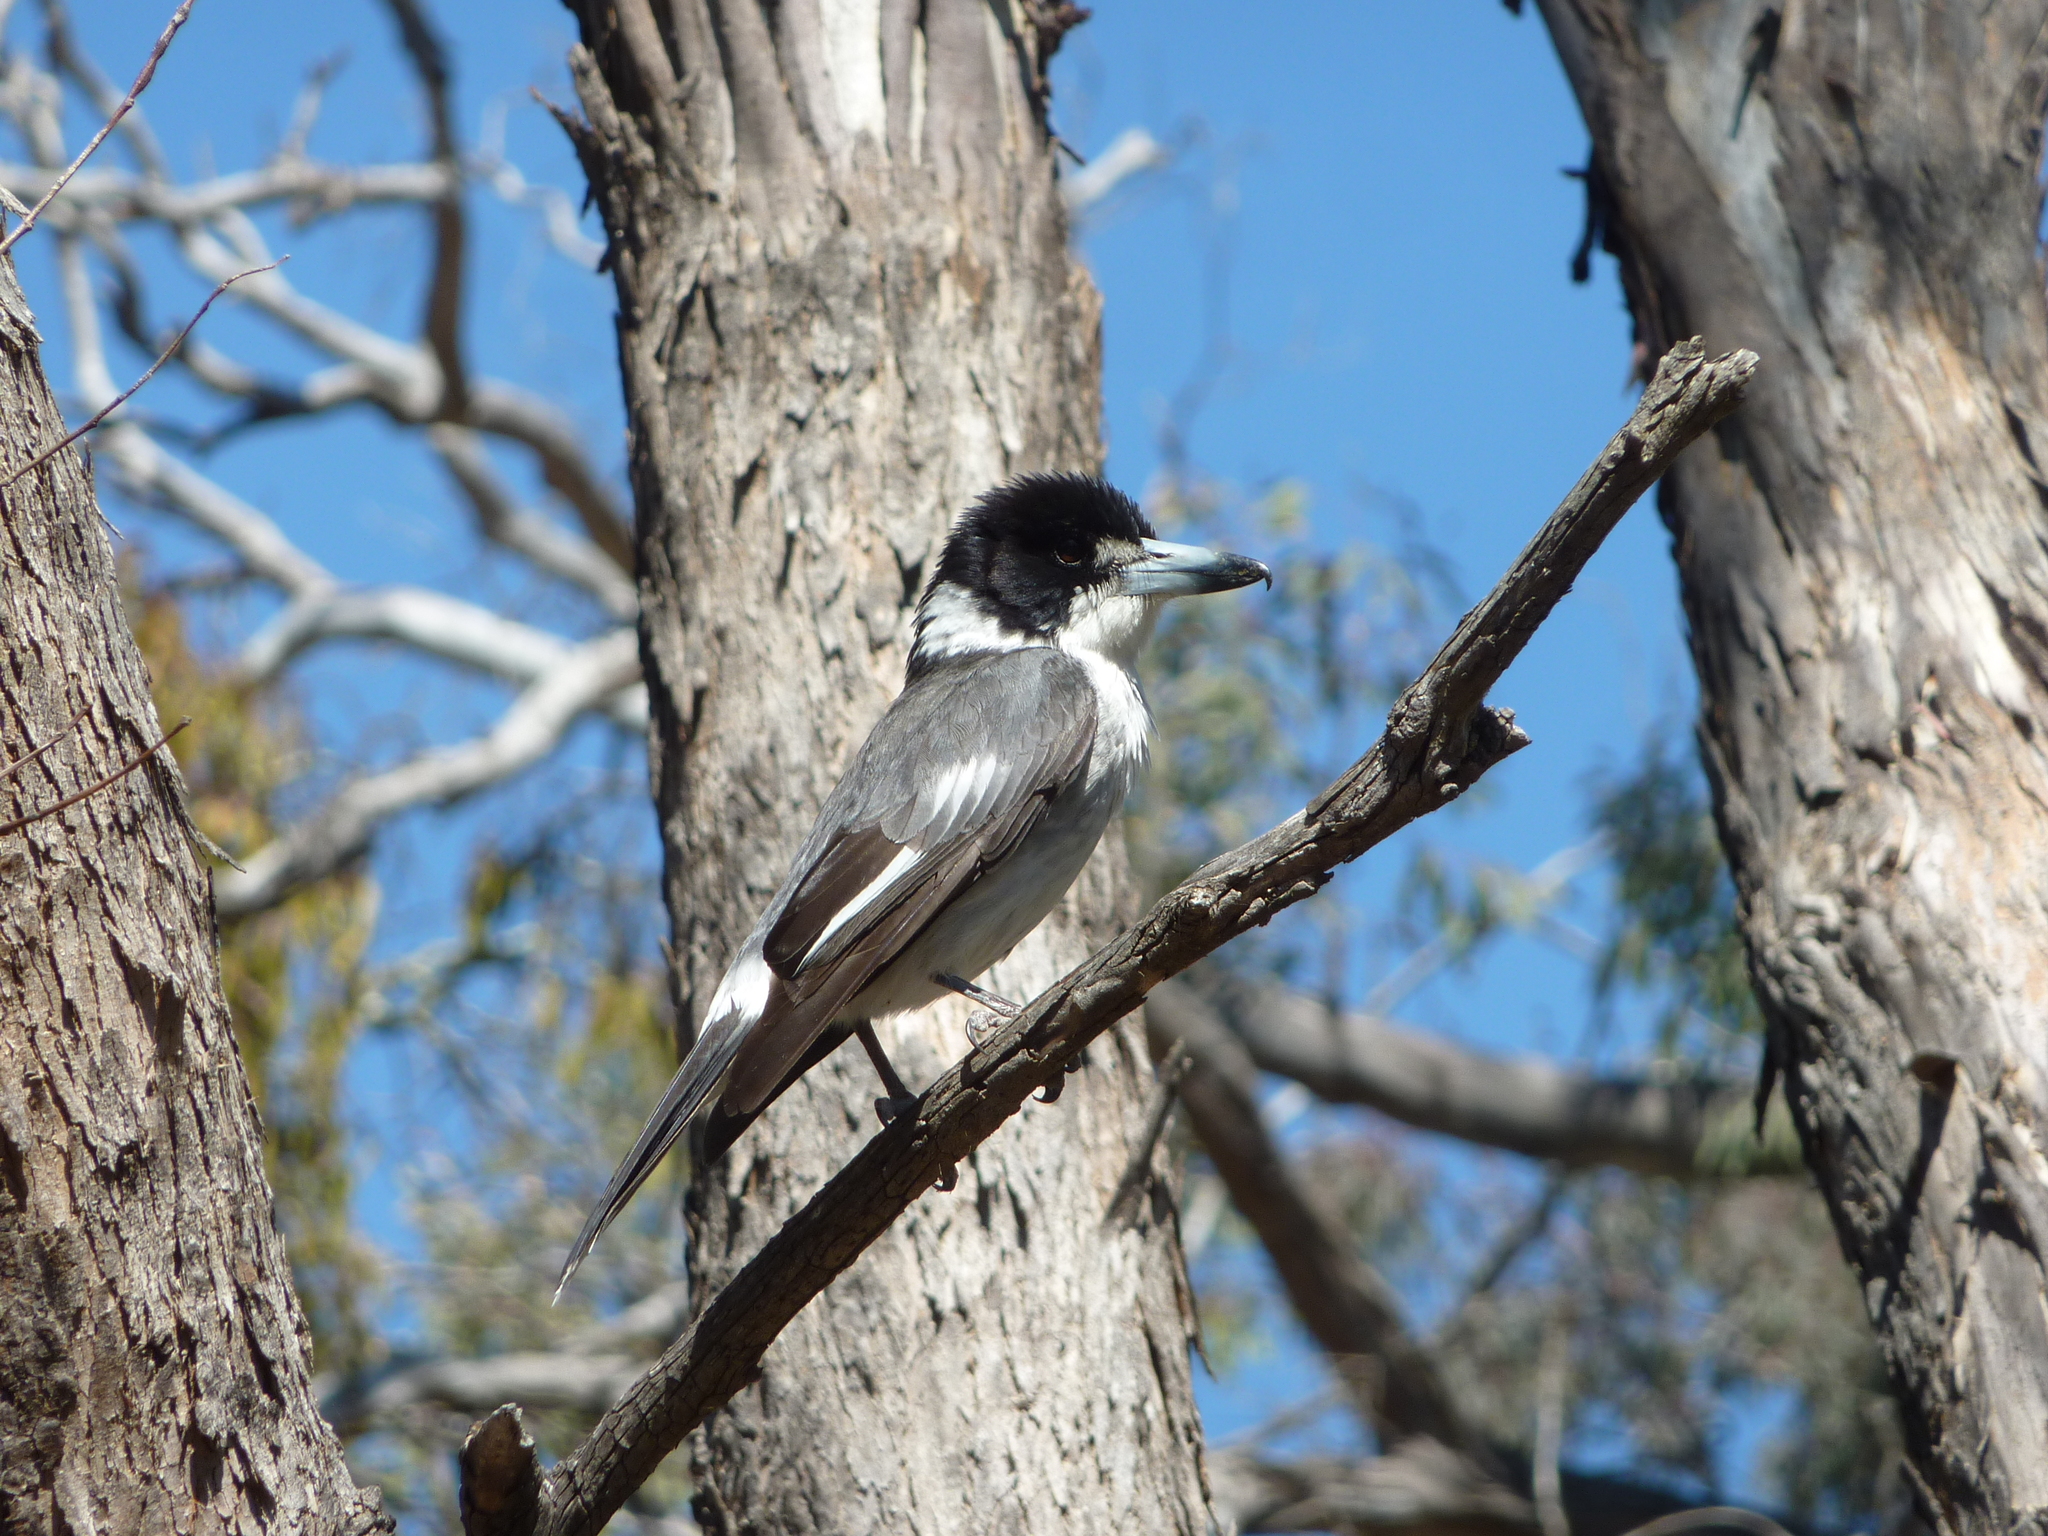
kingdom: Animalia
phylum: Chordata
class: Aves
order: Passeriformes
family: Cracticidae
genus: Cracticus
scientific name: Cracticus torquatus
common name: Grey butcherbird
